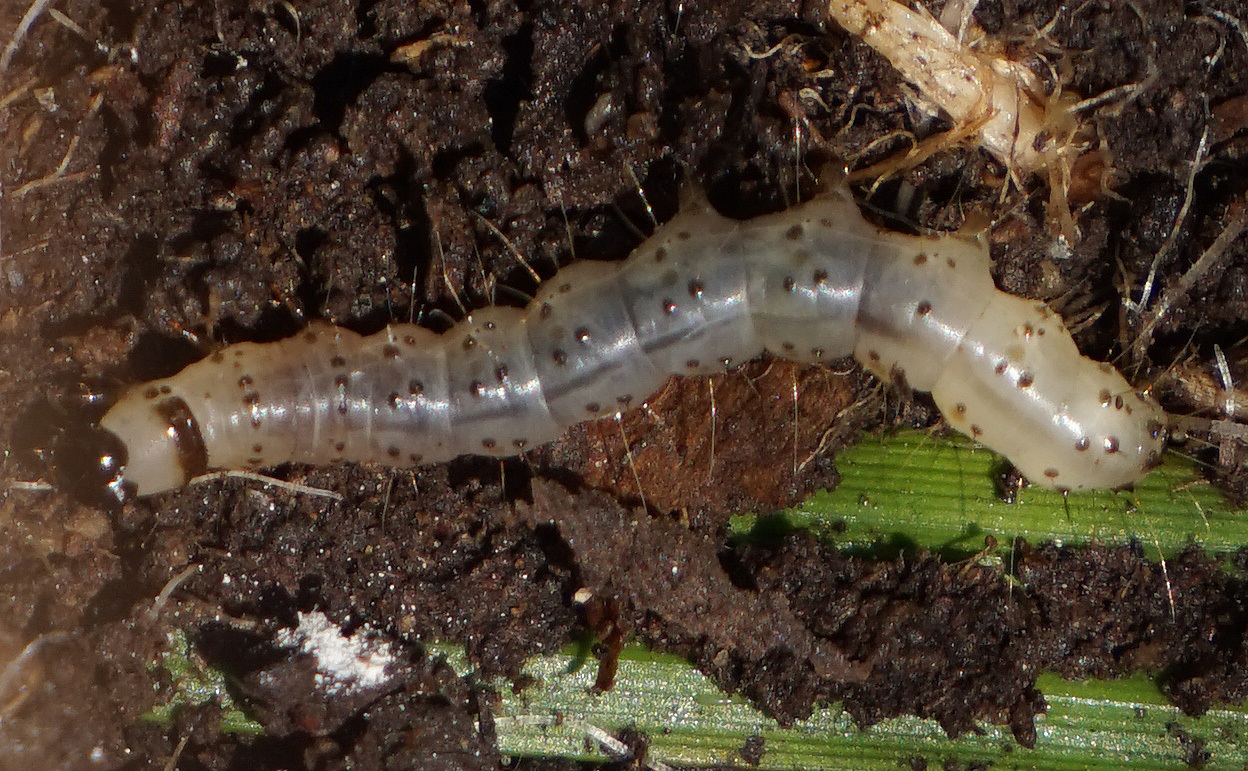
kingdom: Animalia
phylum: Arthropoda
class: Insecta
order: Lepidoptera
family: Erebidae
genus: Scolecocampa
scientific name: Scolecocampa liburna
